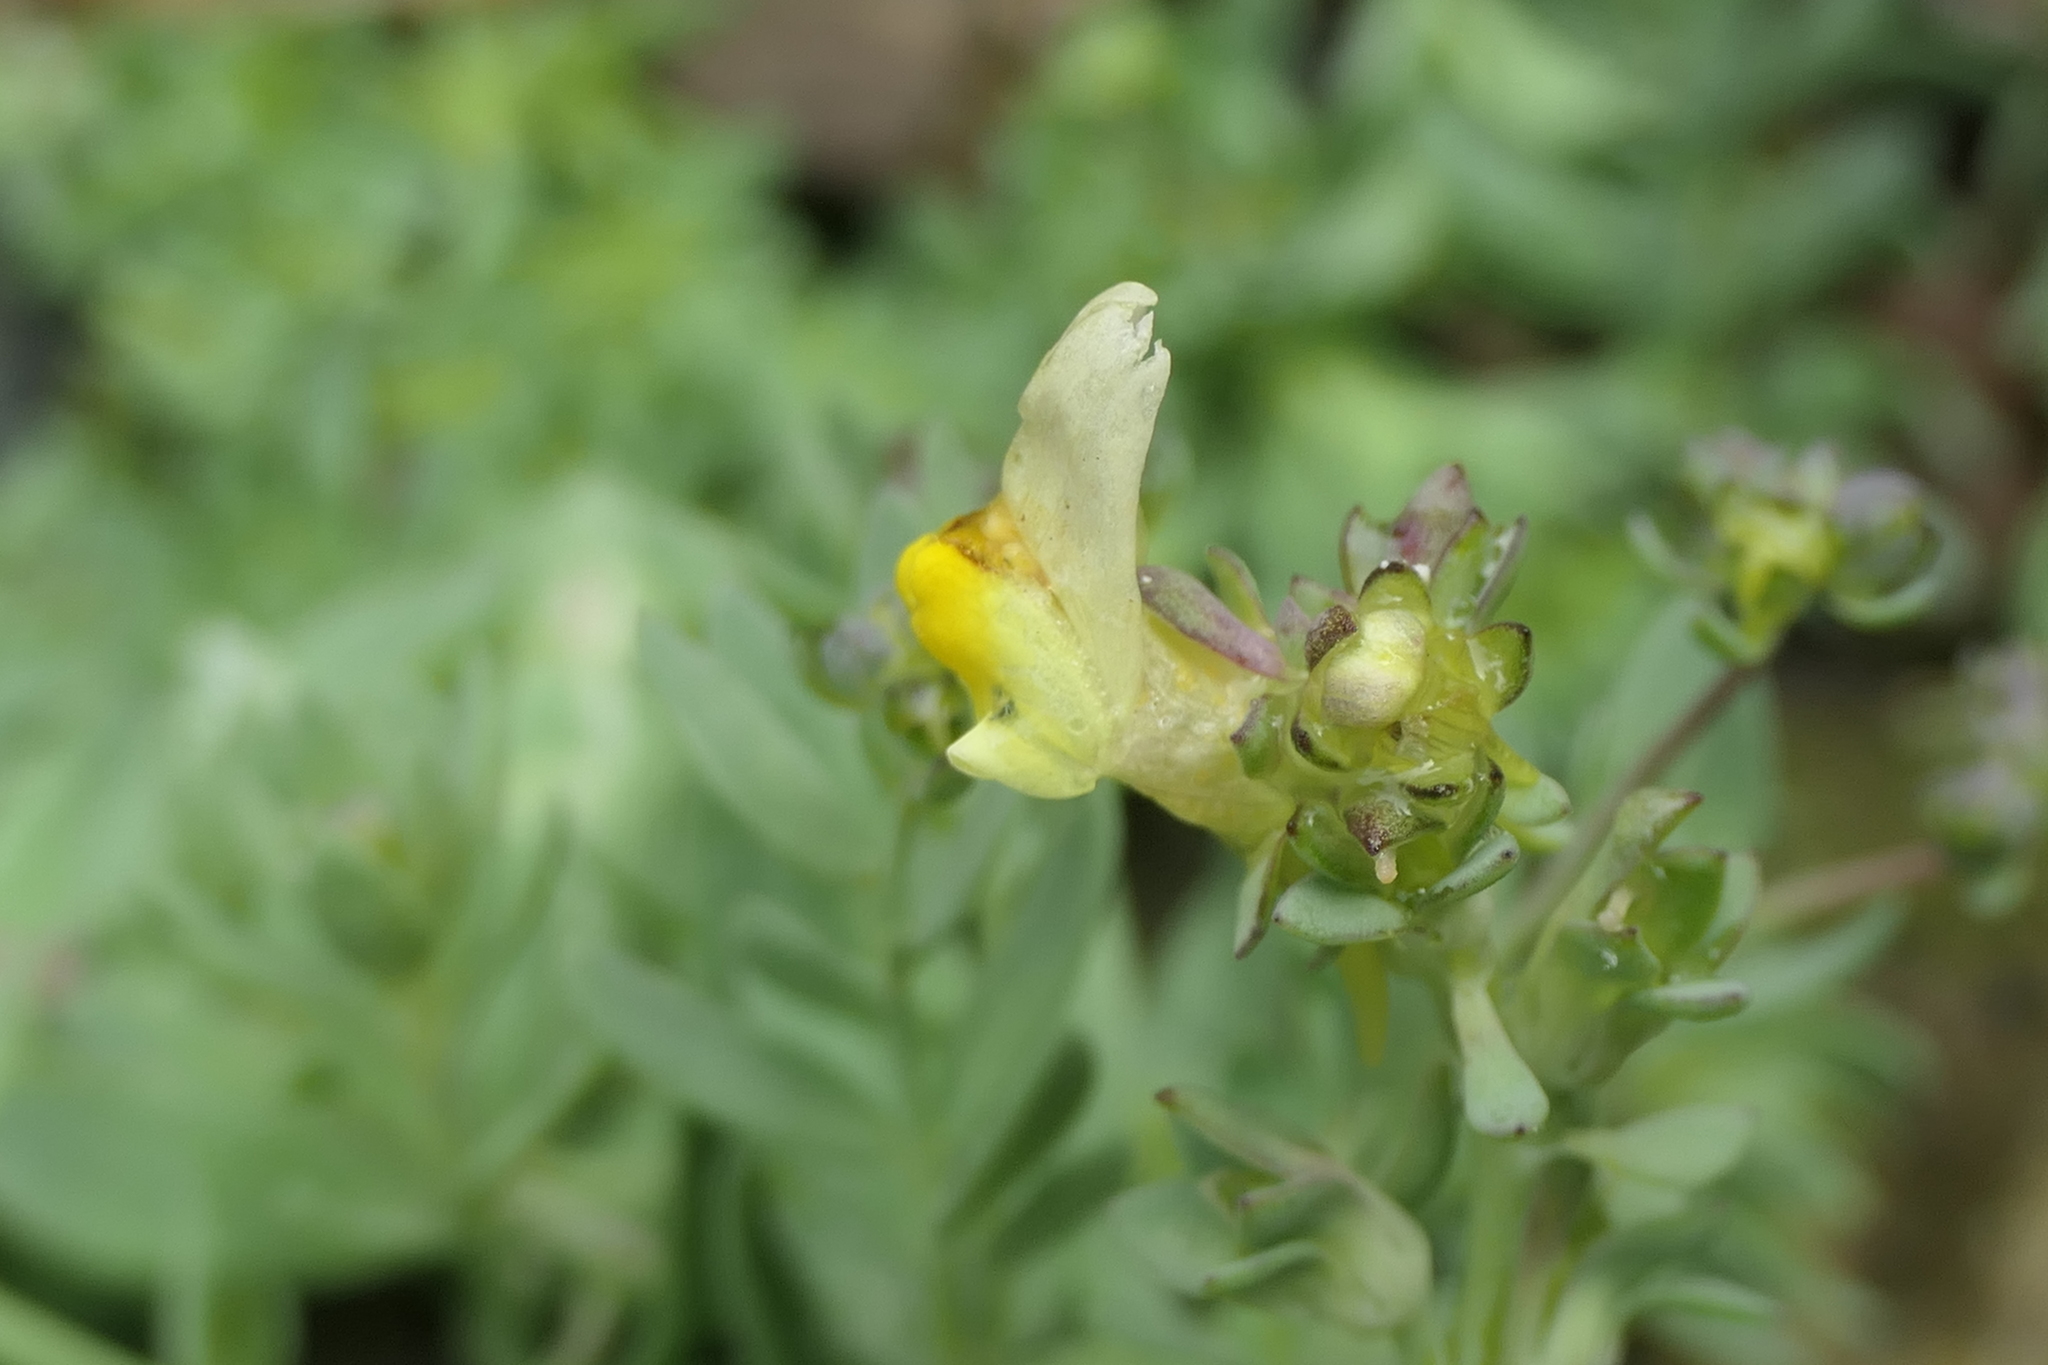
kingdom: Plantae
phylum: Tracheophyta
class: Magnoliopsida
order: Lamiales
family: Plantaginaceae
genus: Linaria
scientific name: Linaria polygalifolia
